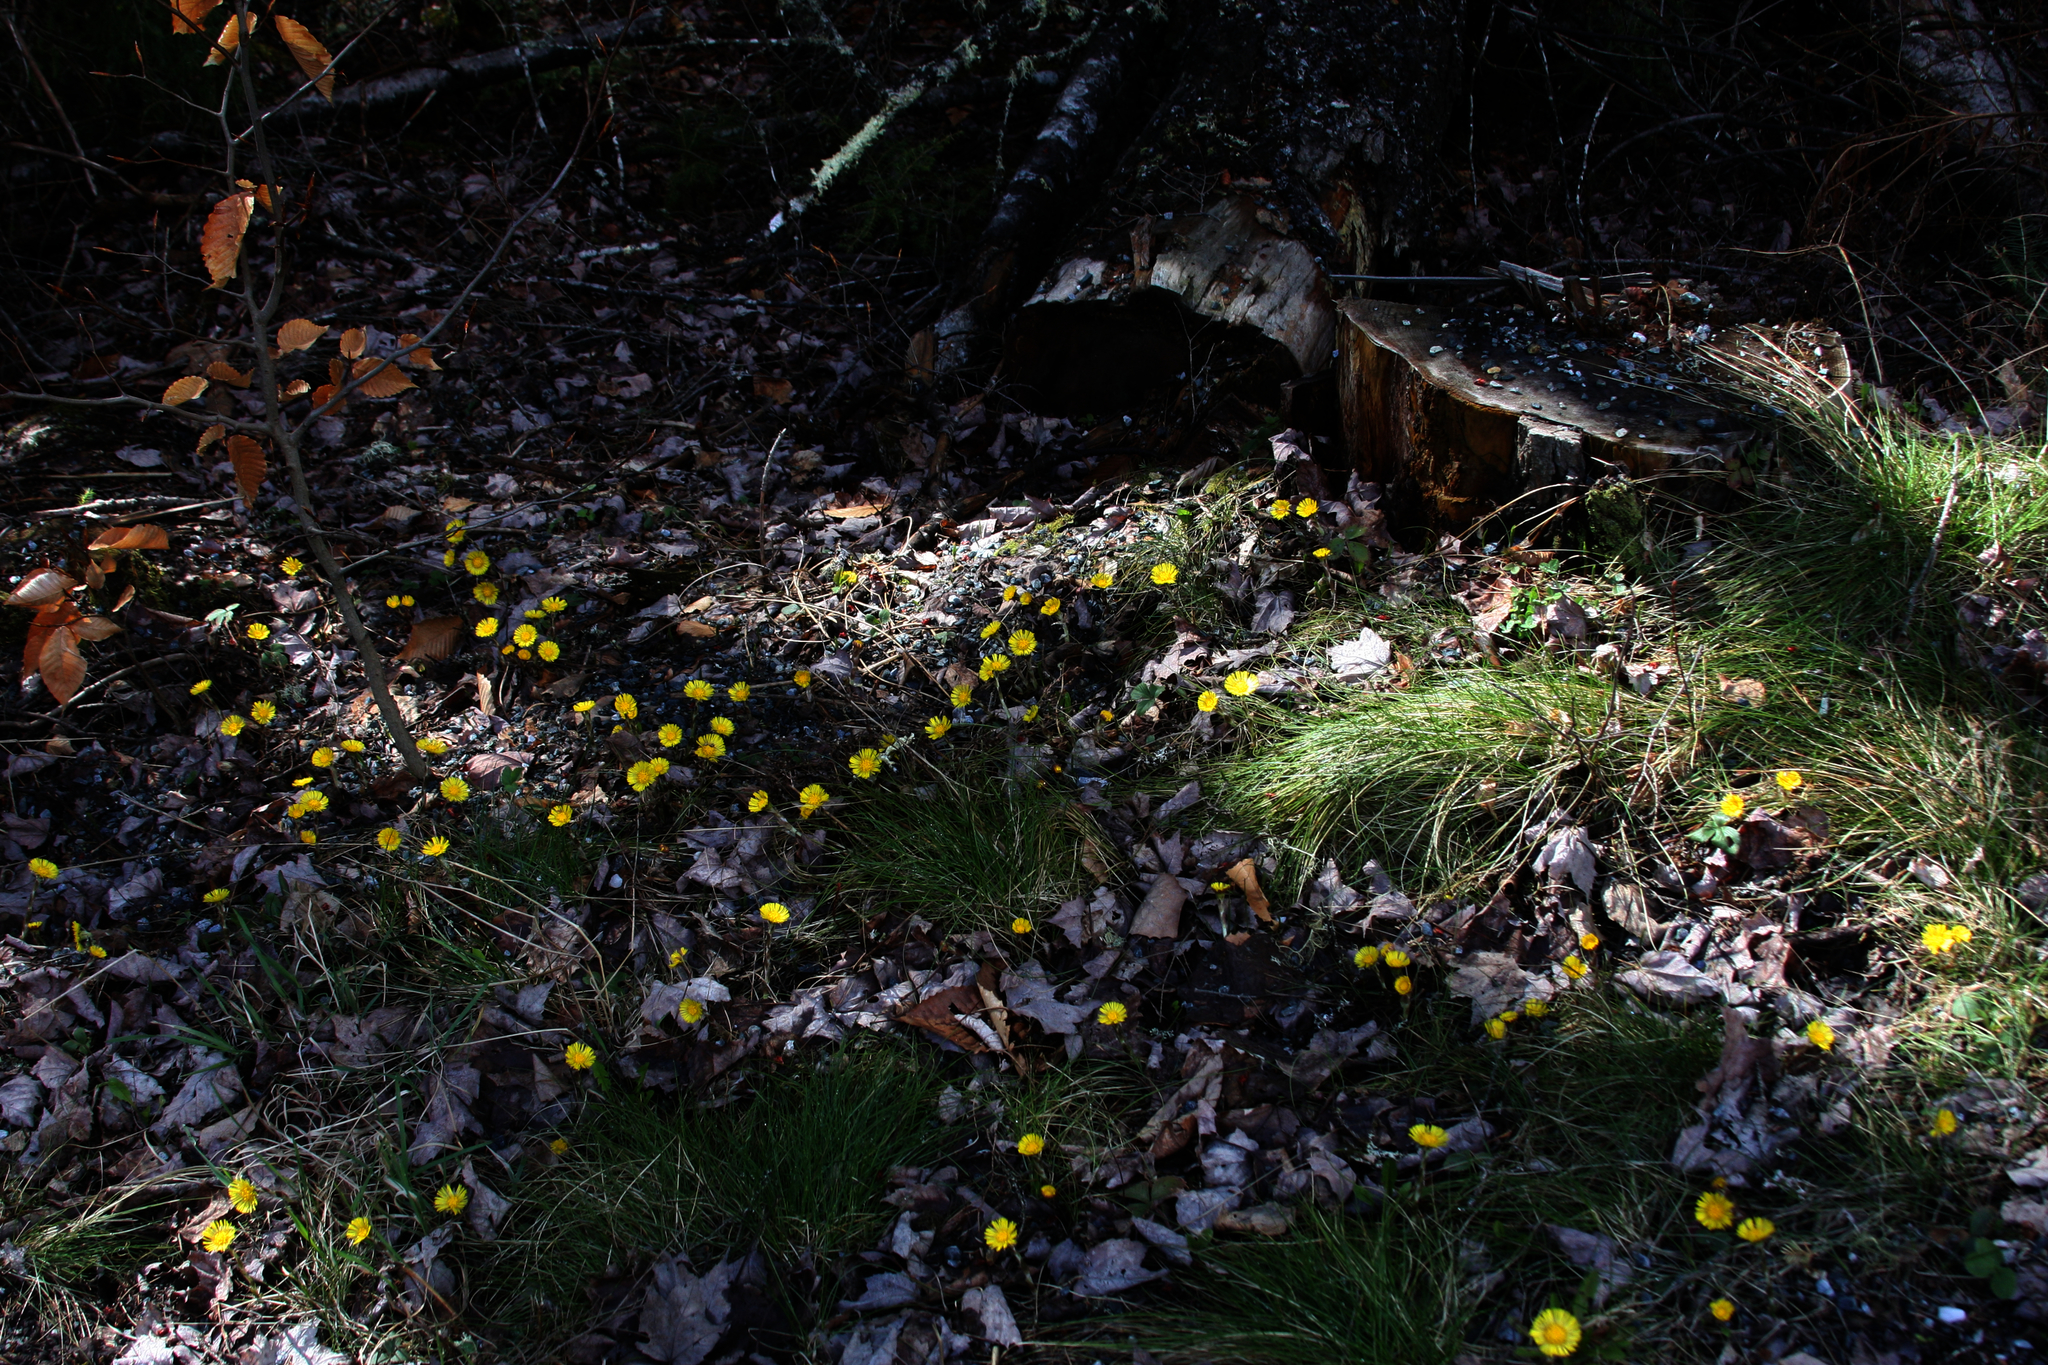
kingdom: Plantae
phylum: Tracheophyta
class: Magnoliopsida
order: Asterales
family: Asteraceae
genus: Tussilago
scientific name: Tussilago farfara
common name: Coltsfoot
